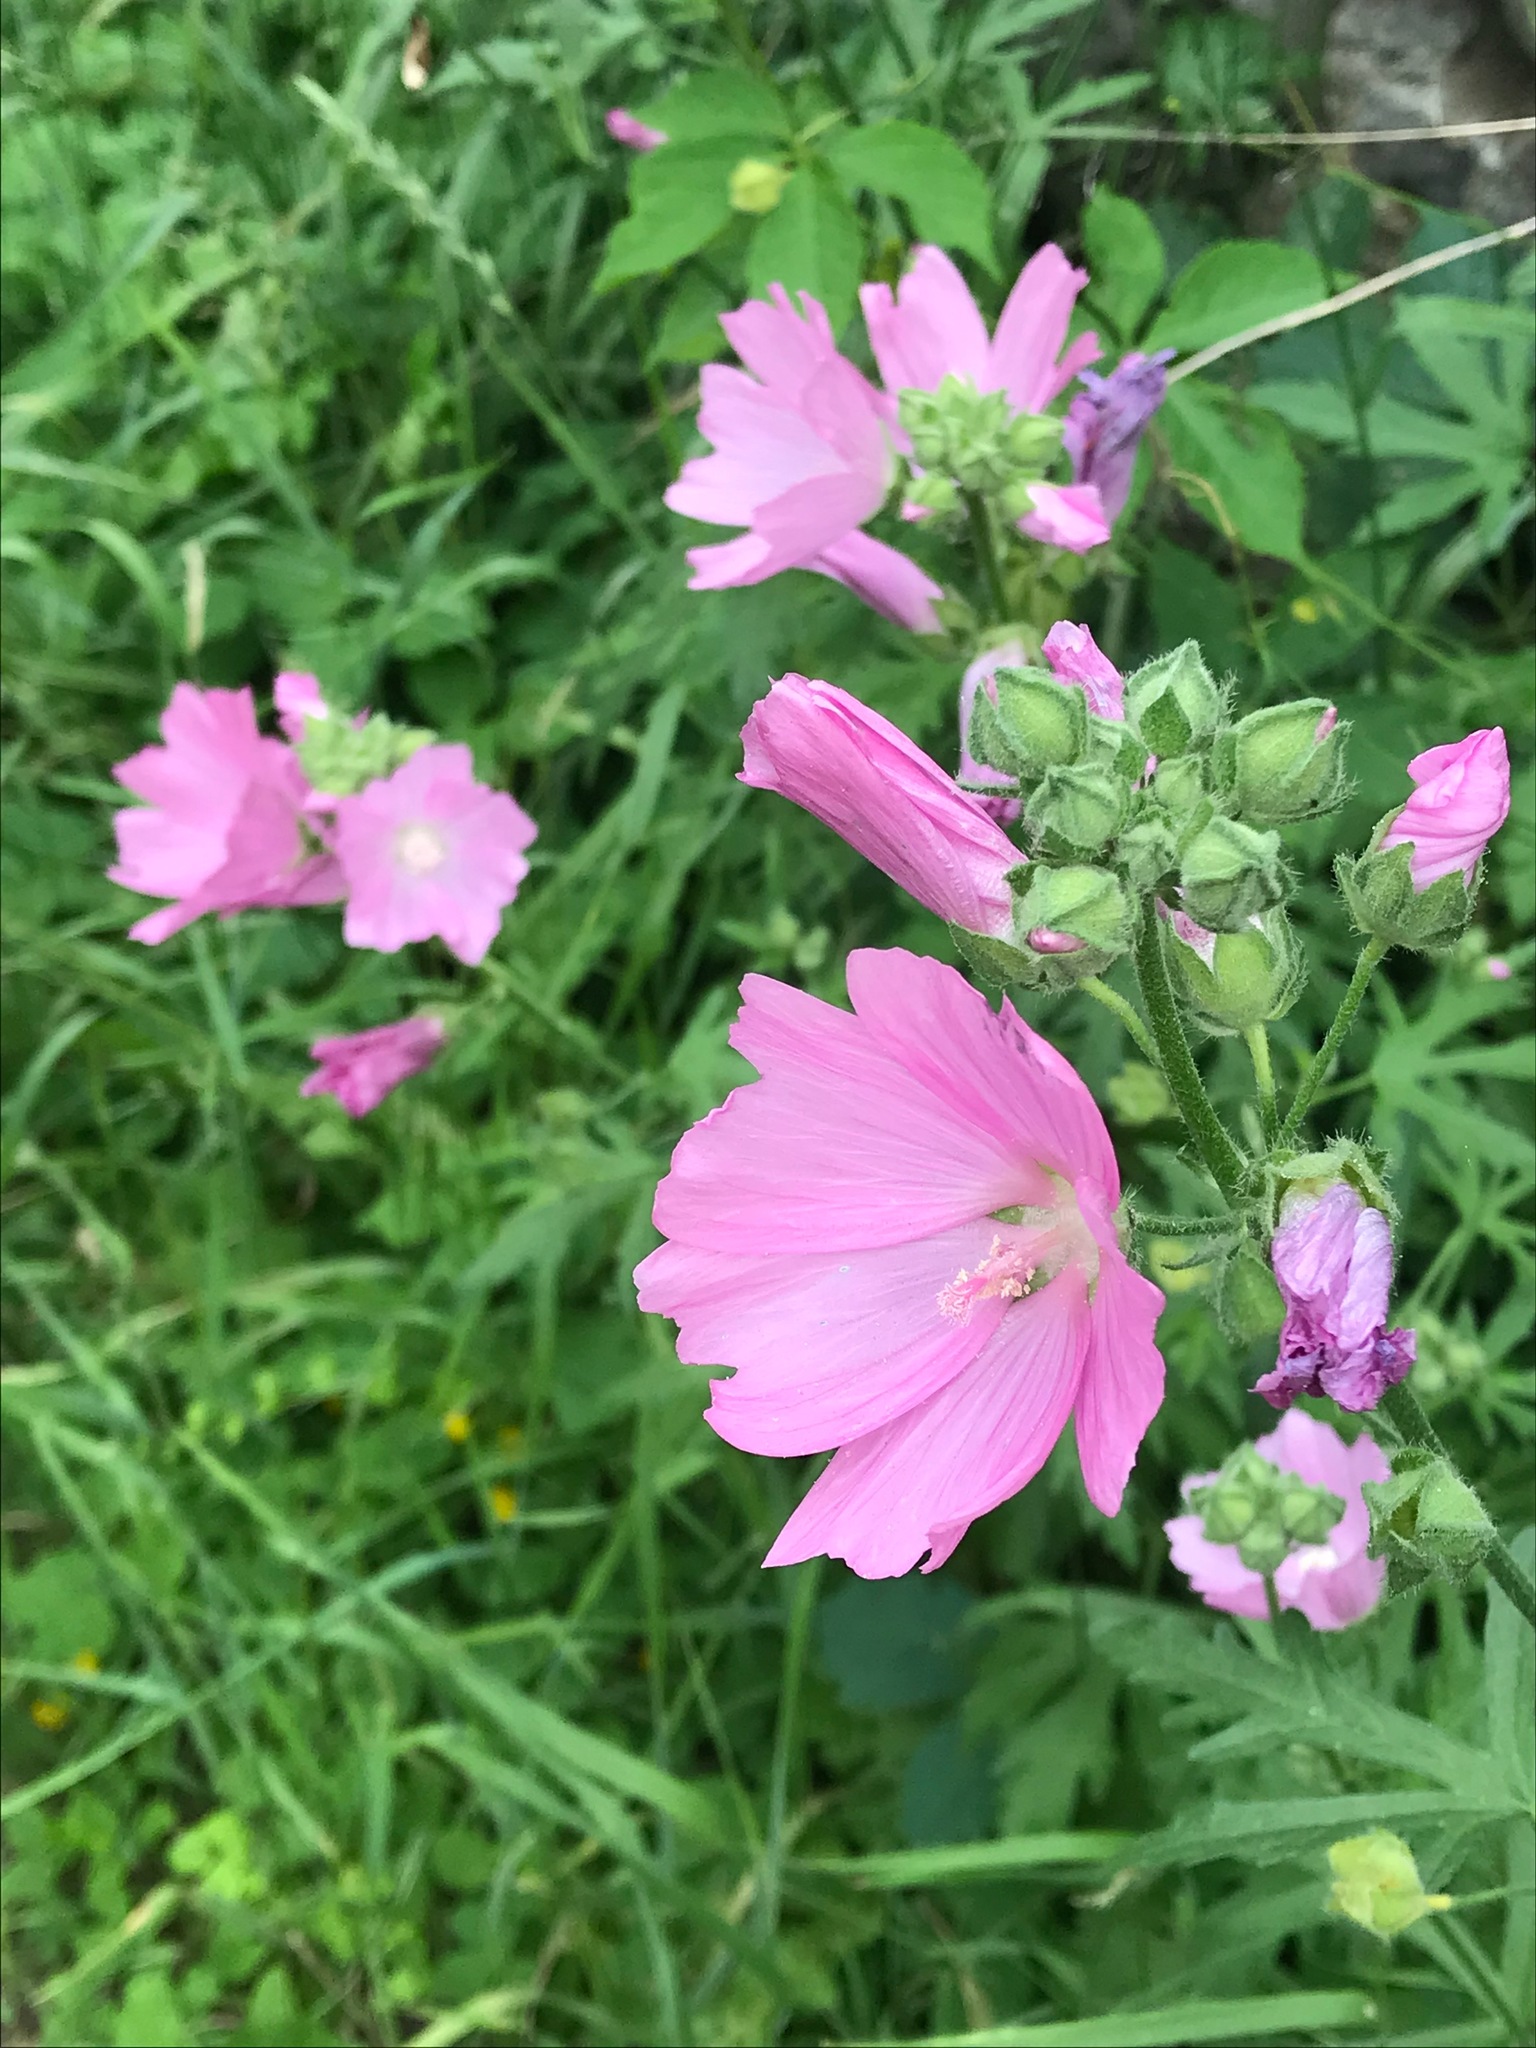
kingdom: Plantae
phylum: Tracheophyta
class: Magnoliopsida
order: Malvales
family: Malvaceae
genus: Malva
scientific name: Malva moschata
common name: Musk mallow
